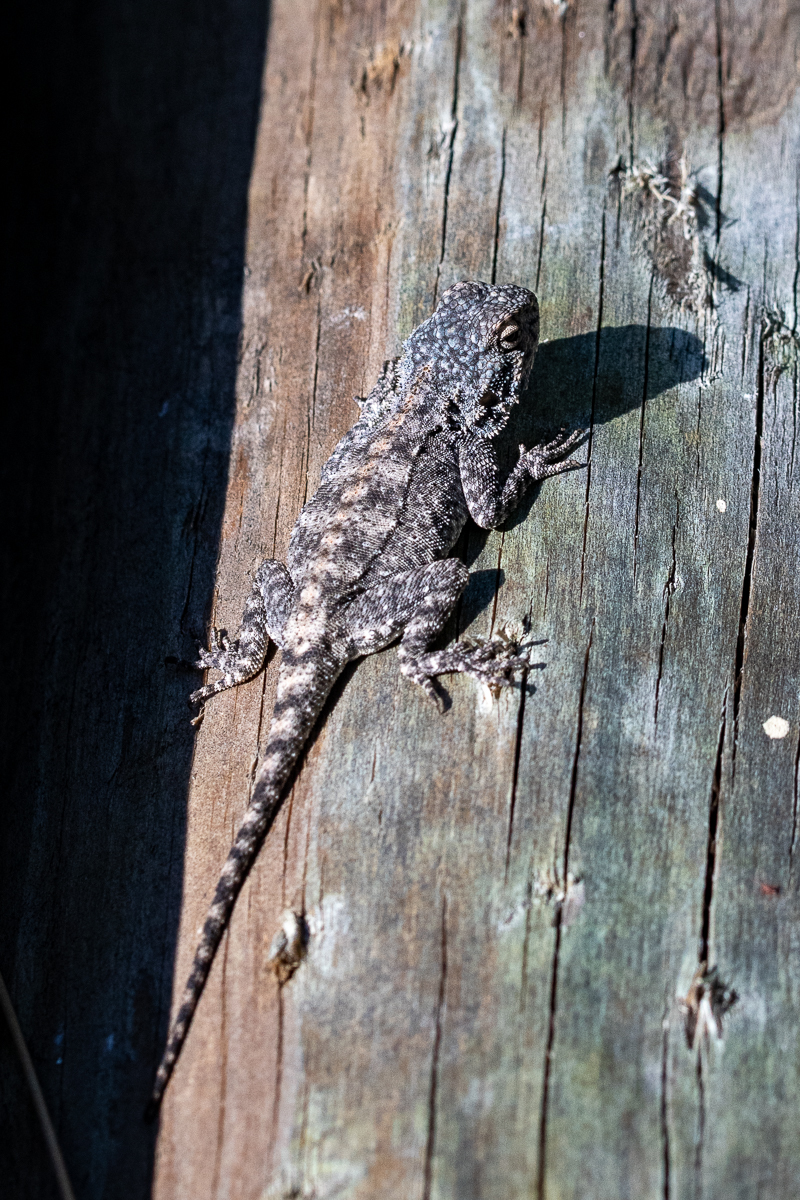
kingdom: Animalia
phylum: Chordata
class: Squamata
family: Agamidae
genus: Agama
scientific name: Agama atra
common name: Southern african rock agama
